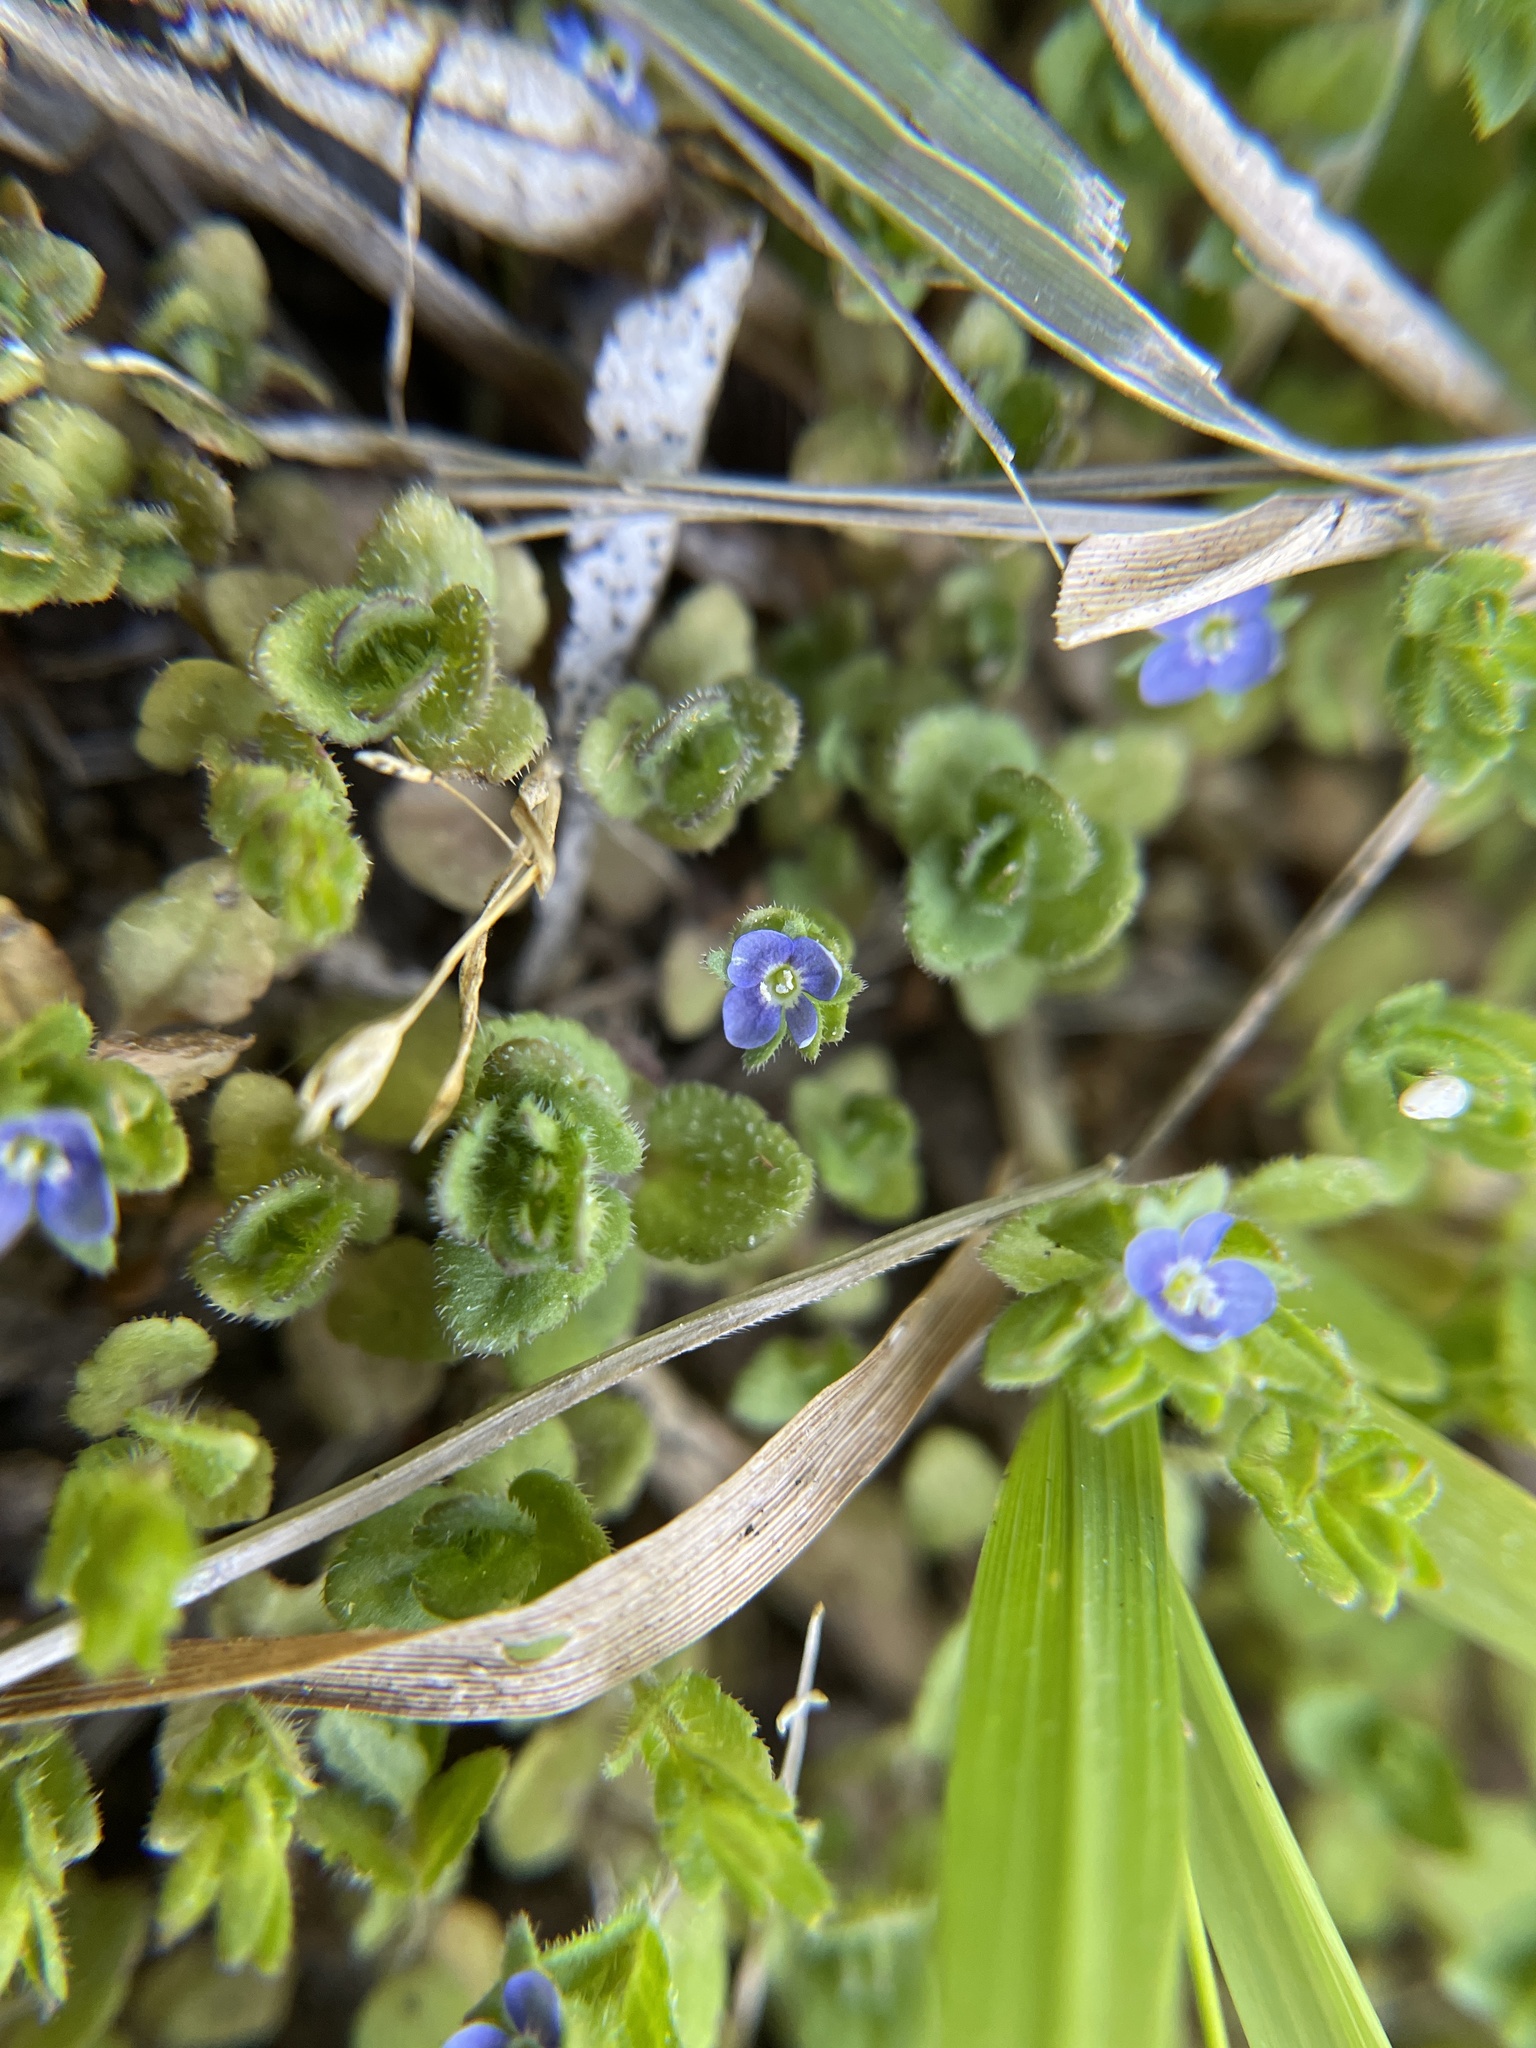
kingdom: Plantae
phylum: Tracheophyta
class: Magnoliopsida
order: Lamiales
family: Plantaginaceae
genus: Veronica
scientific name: Veronica arvensis
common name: Corn speedwell
